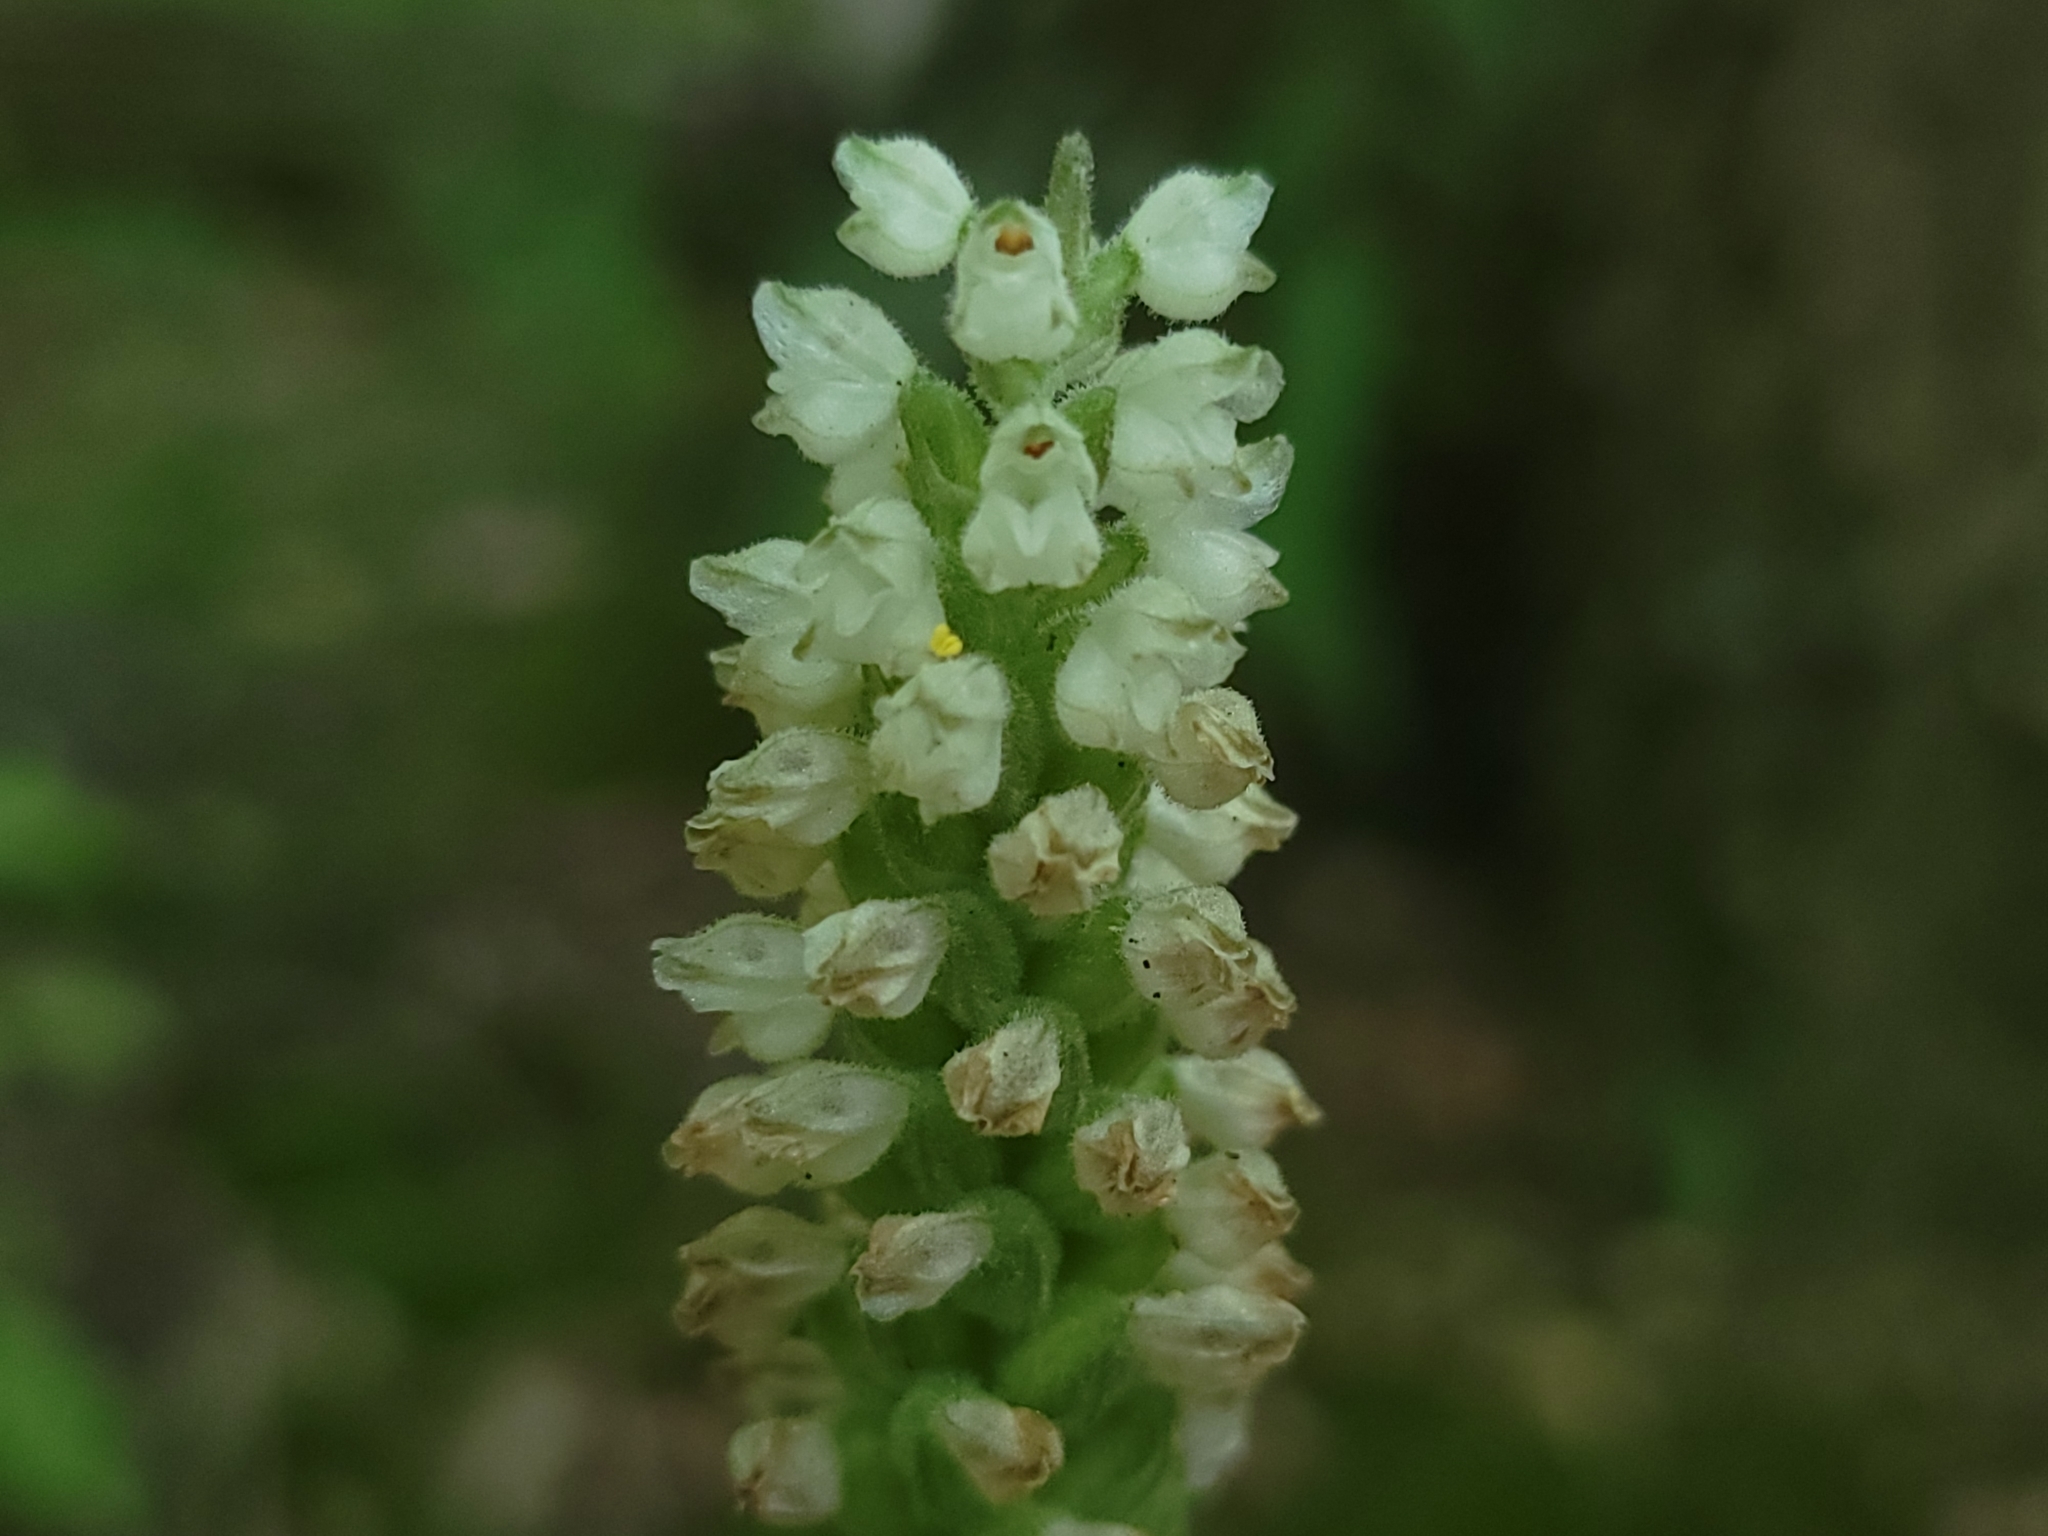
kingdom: Plantae
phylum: Tracheophyta
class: Liliopsida
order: Asparagales
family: Orchidaceae
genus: Goodyera
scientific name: Goodyera pubescens
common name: Downy rattlesnake-plantain
